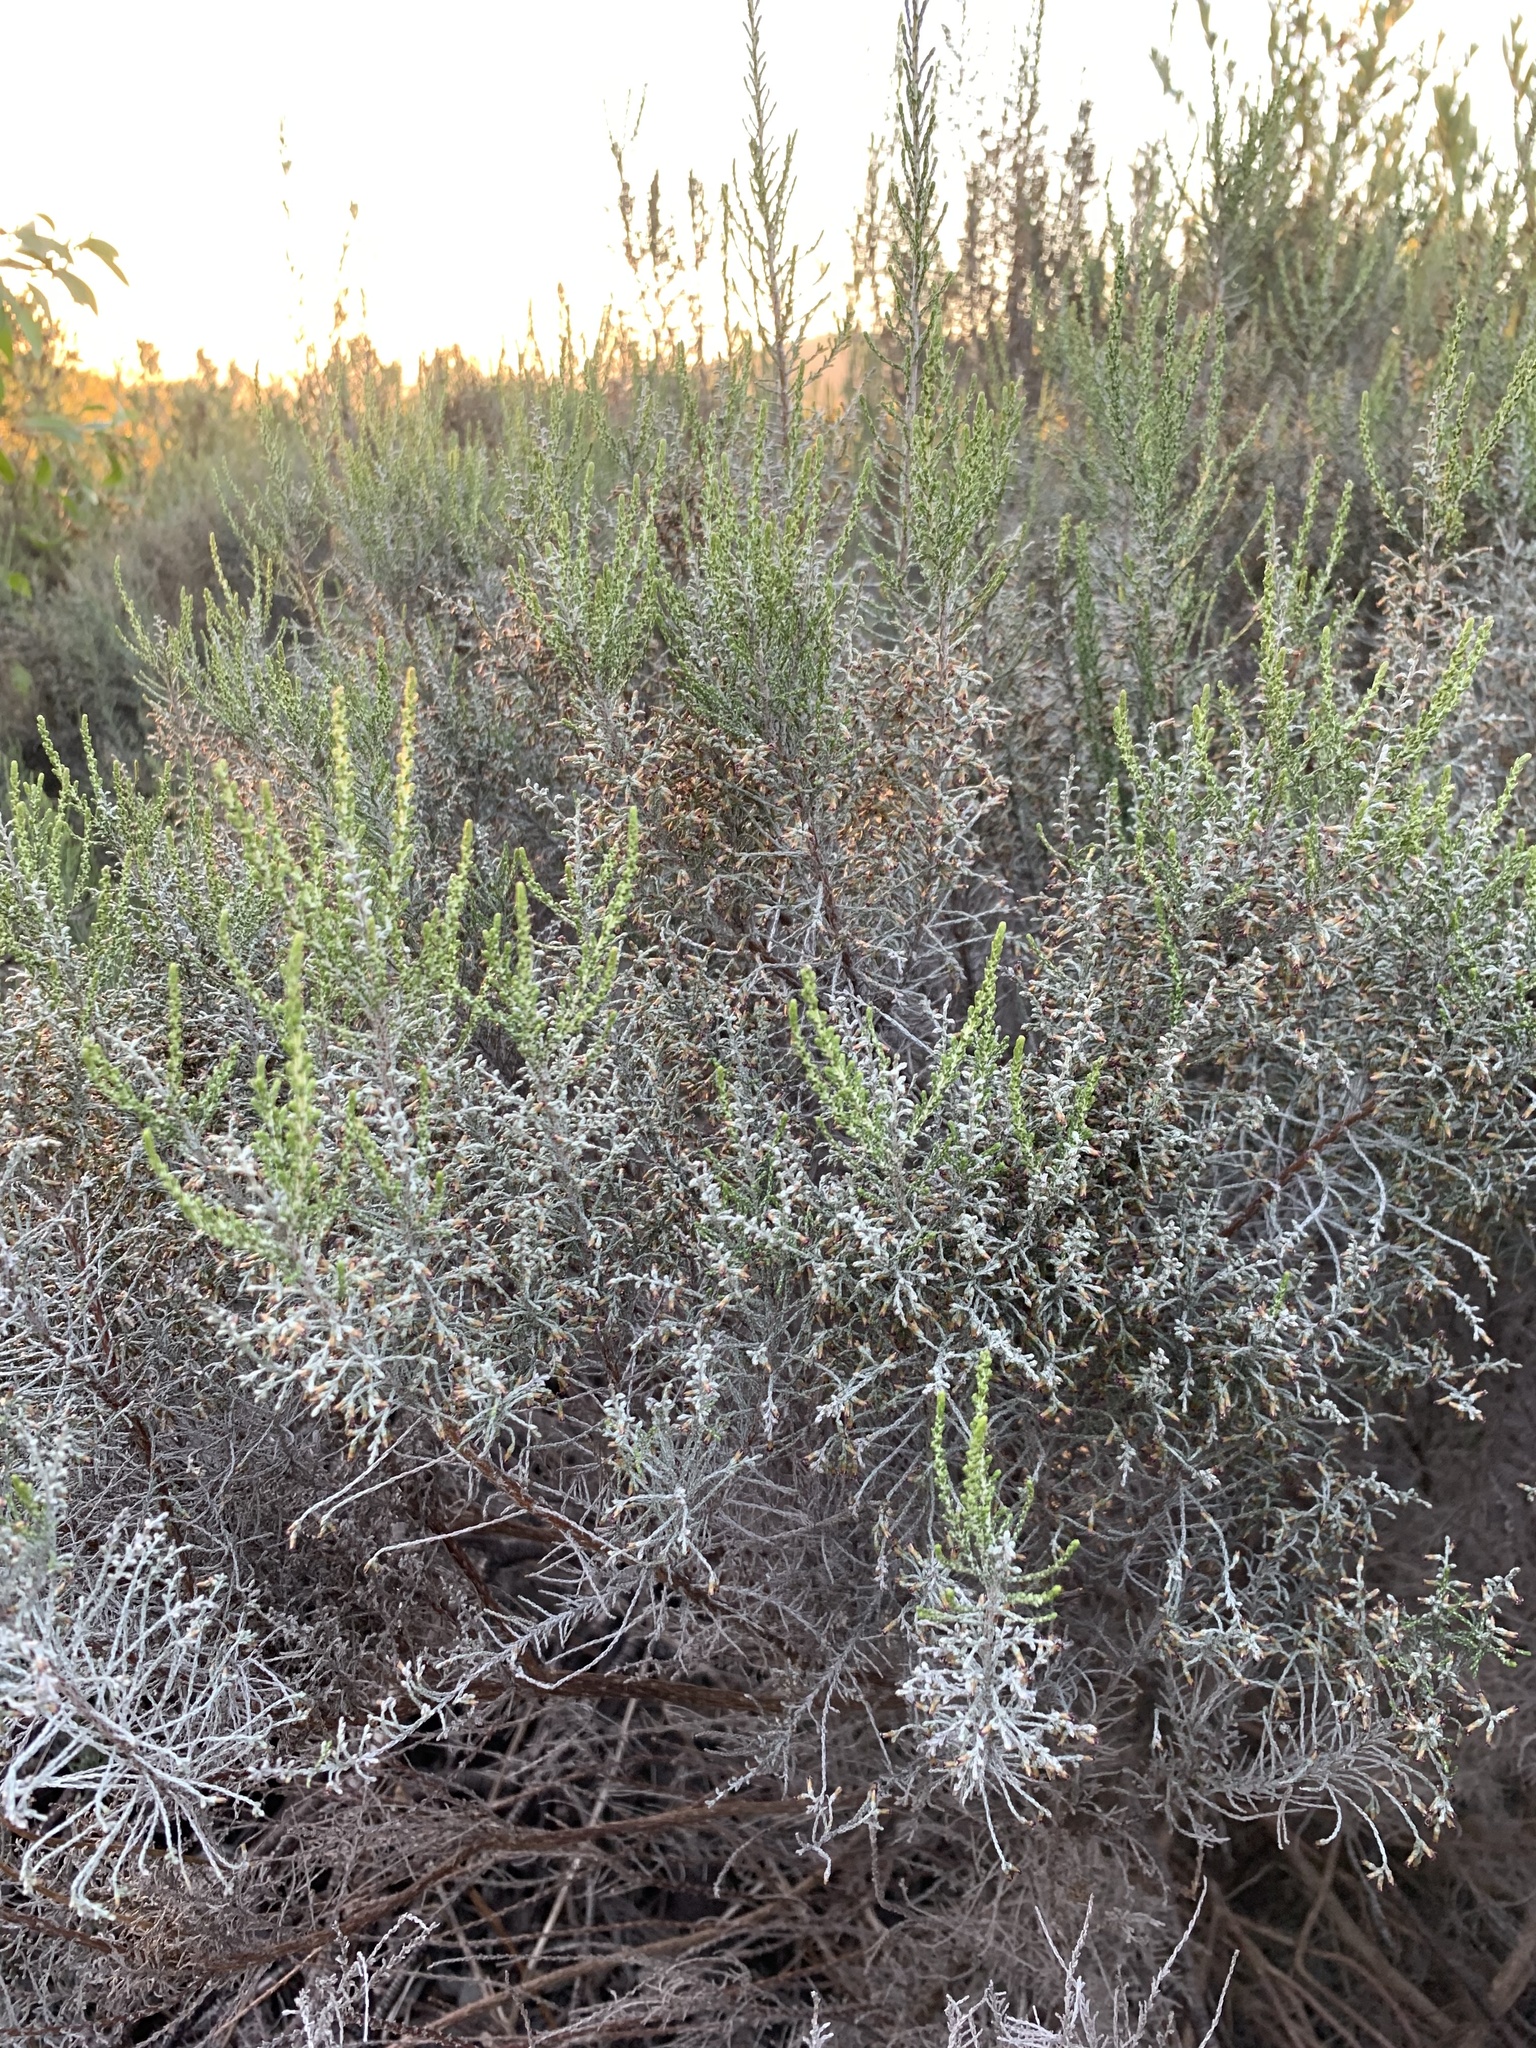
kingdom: Plantae
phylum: Tracheophyta
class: Magnoliopsida
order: Asterales
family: Asteraceae
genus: Dicerothamnus
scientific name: Dicerothamnus rhinocerotis
